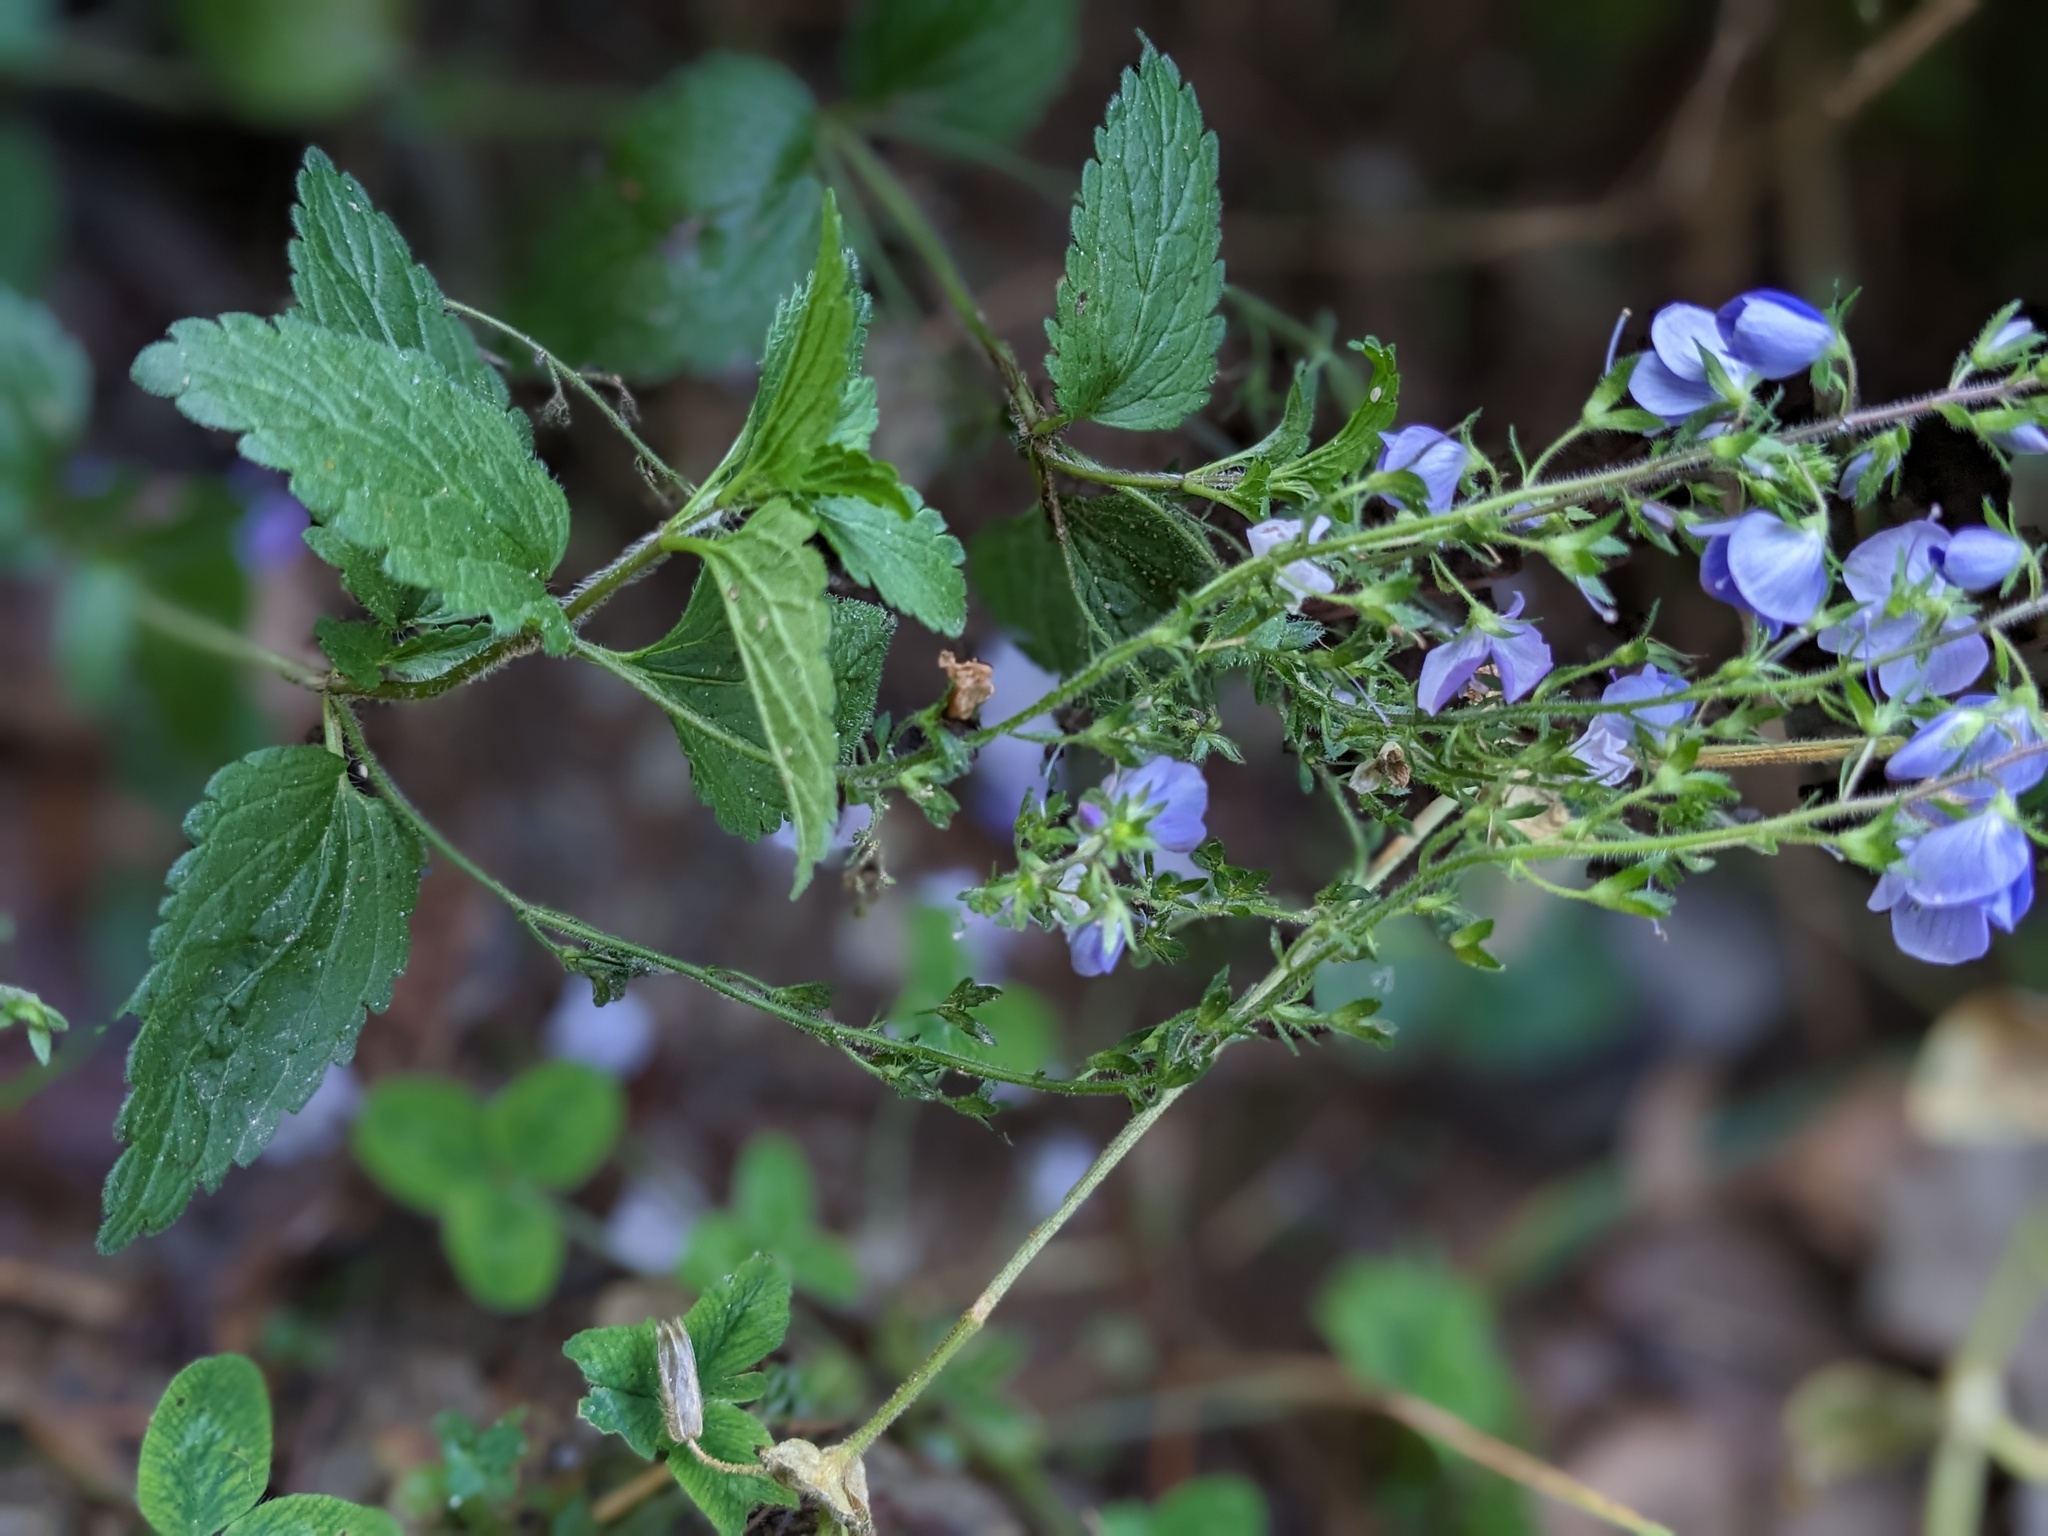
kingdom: Plantae
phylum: Tracheophyta
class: Magnoliopsida
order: Lamiales
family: Plantaginaceae
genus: Veronica
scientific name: Veronica chamaedrys
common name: Germander speedwell
